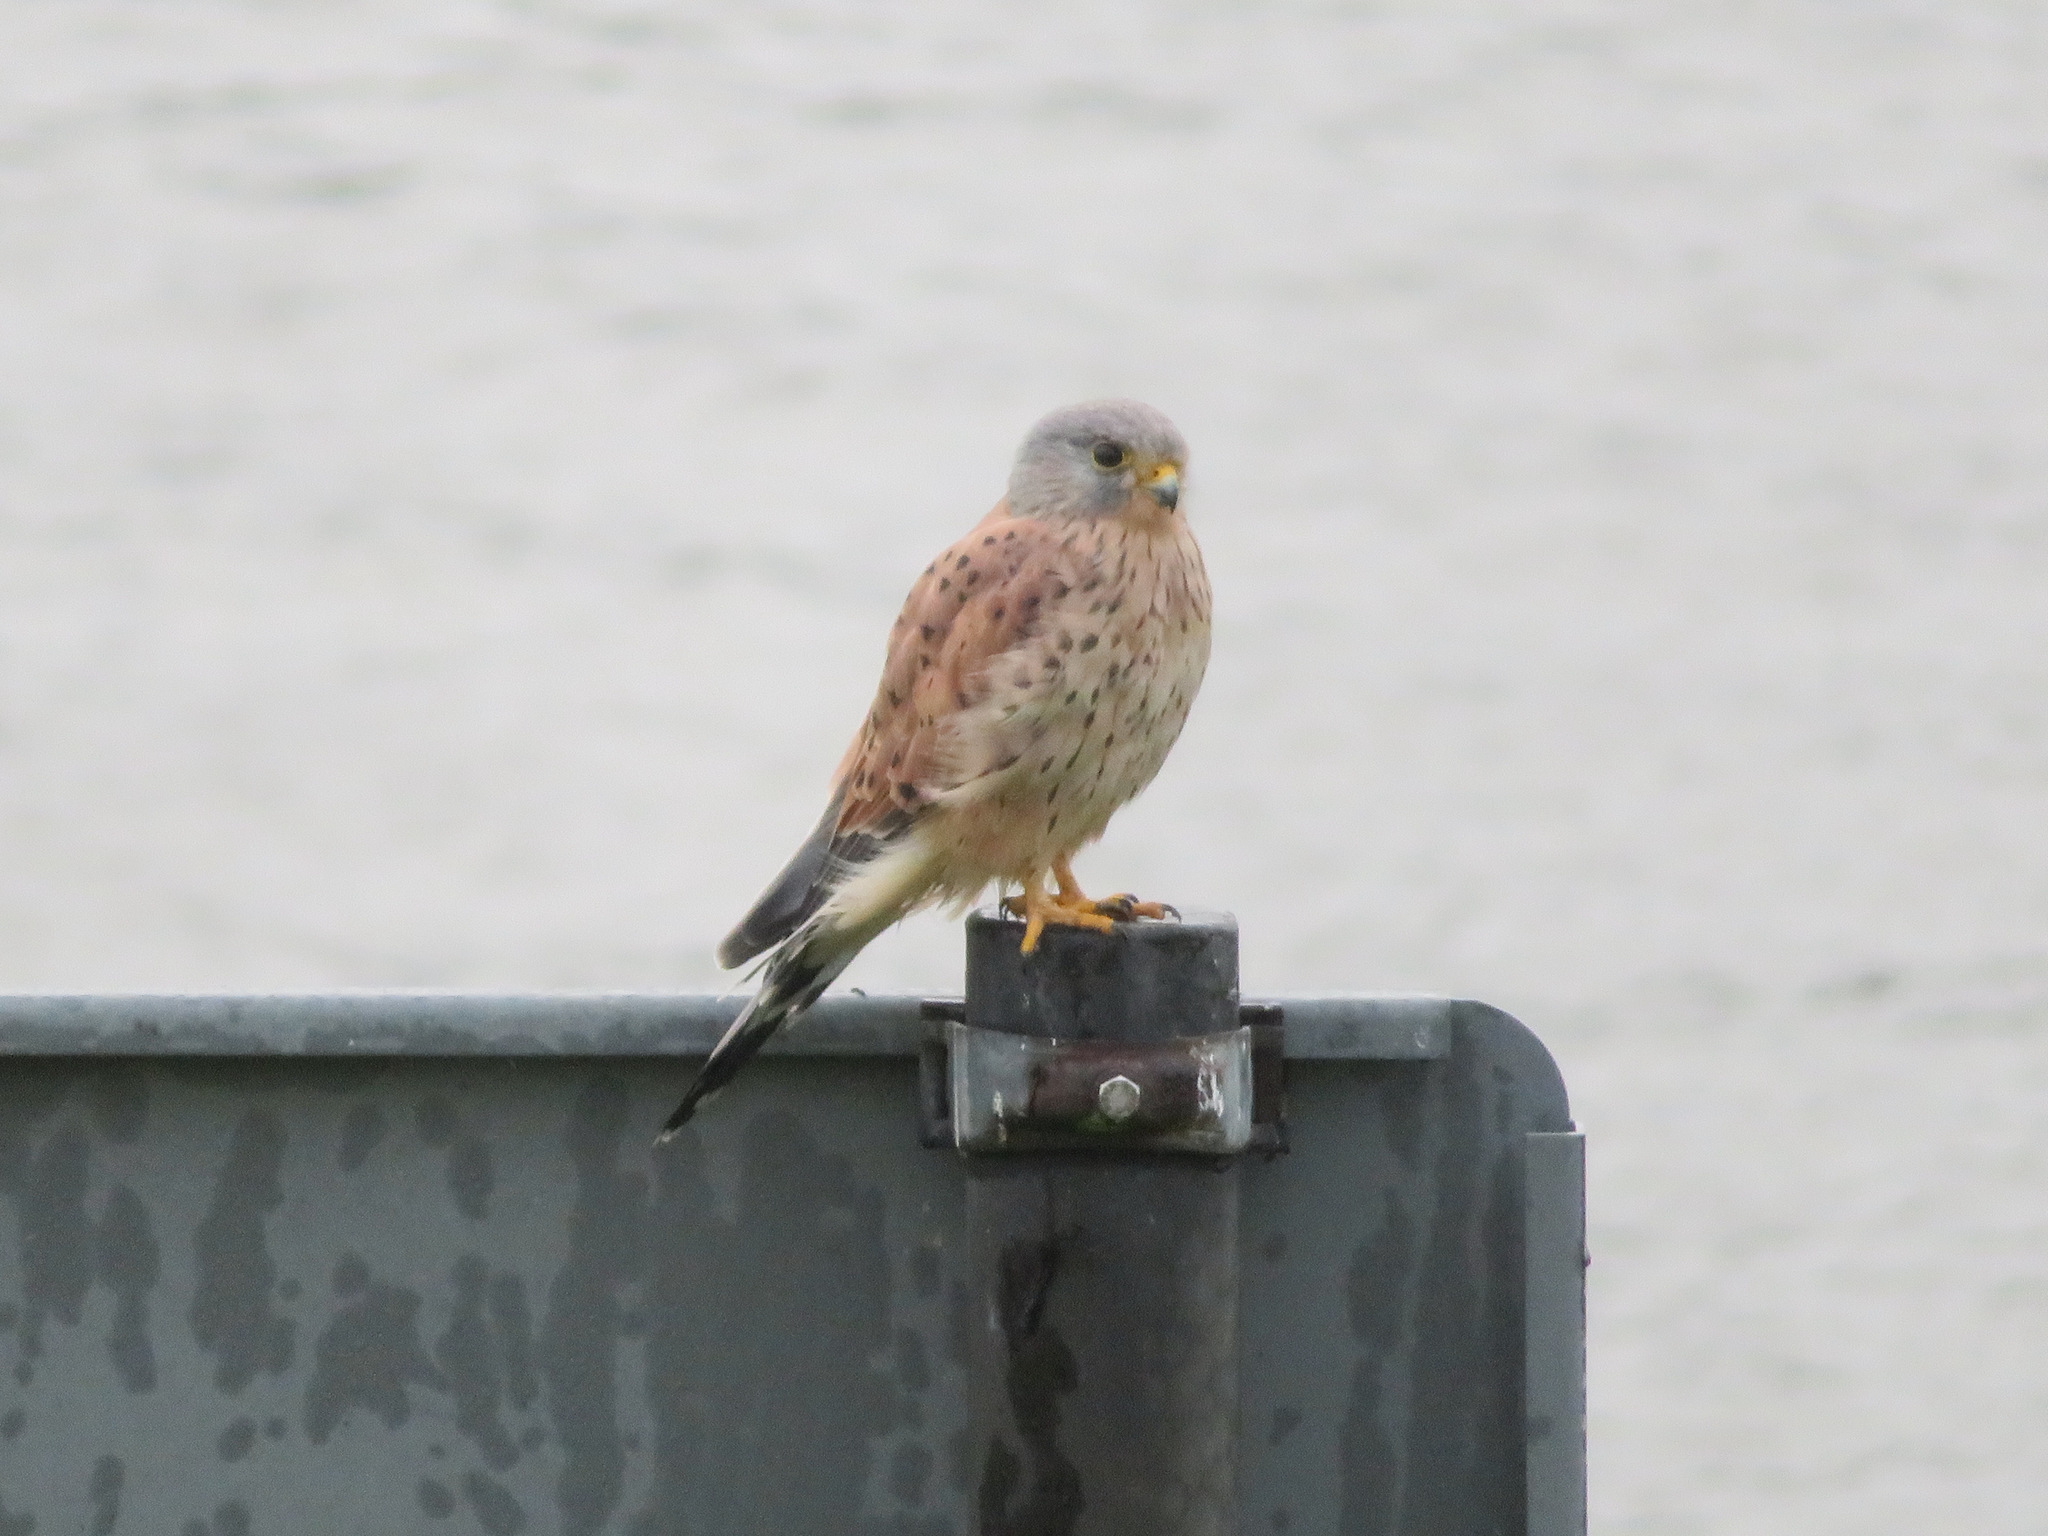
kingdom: Animalia
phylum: Chordata
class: Aves
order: Falconiformes
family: Falconidae
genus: Falco
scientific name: Falco tinnunculus
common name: Common kestrel
